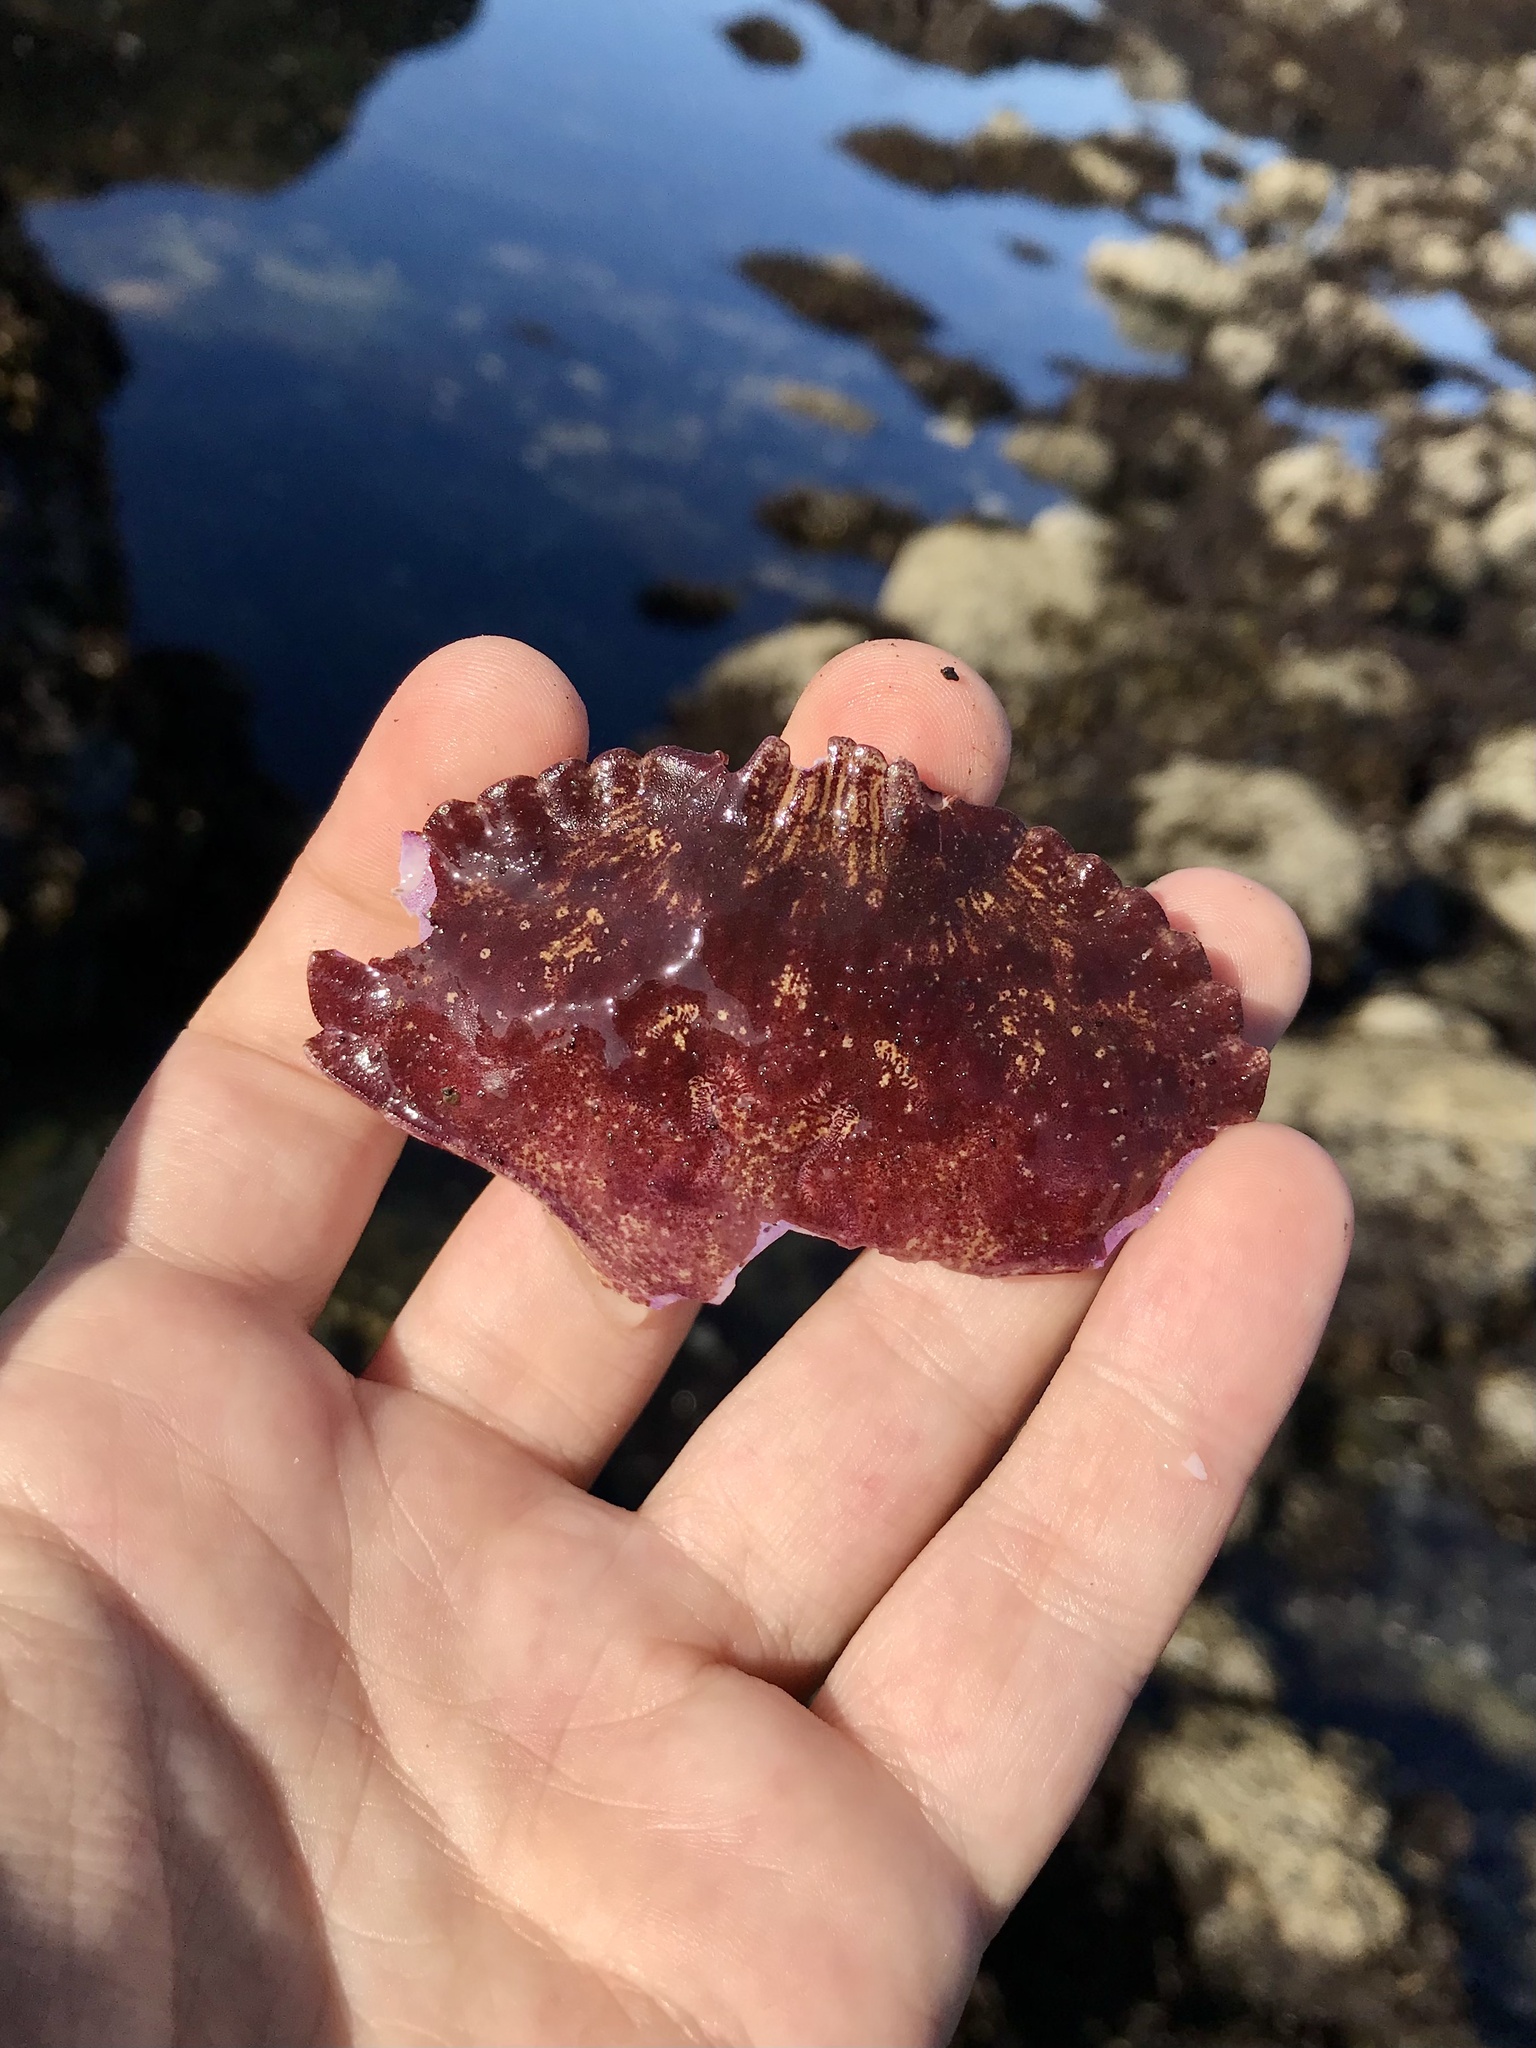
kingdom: Animalia
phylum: Arthropoda
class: Malacostraca
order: Decapoda
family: Cancridae
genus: Cancer
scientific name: Cancer productus
